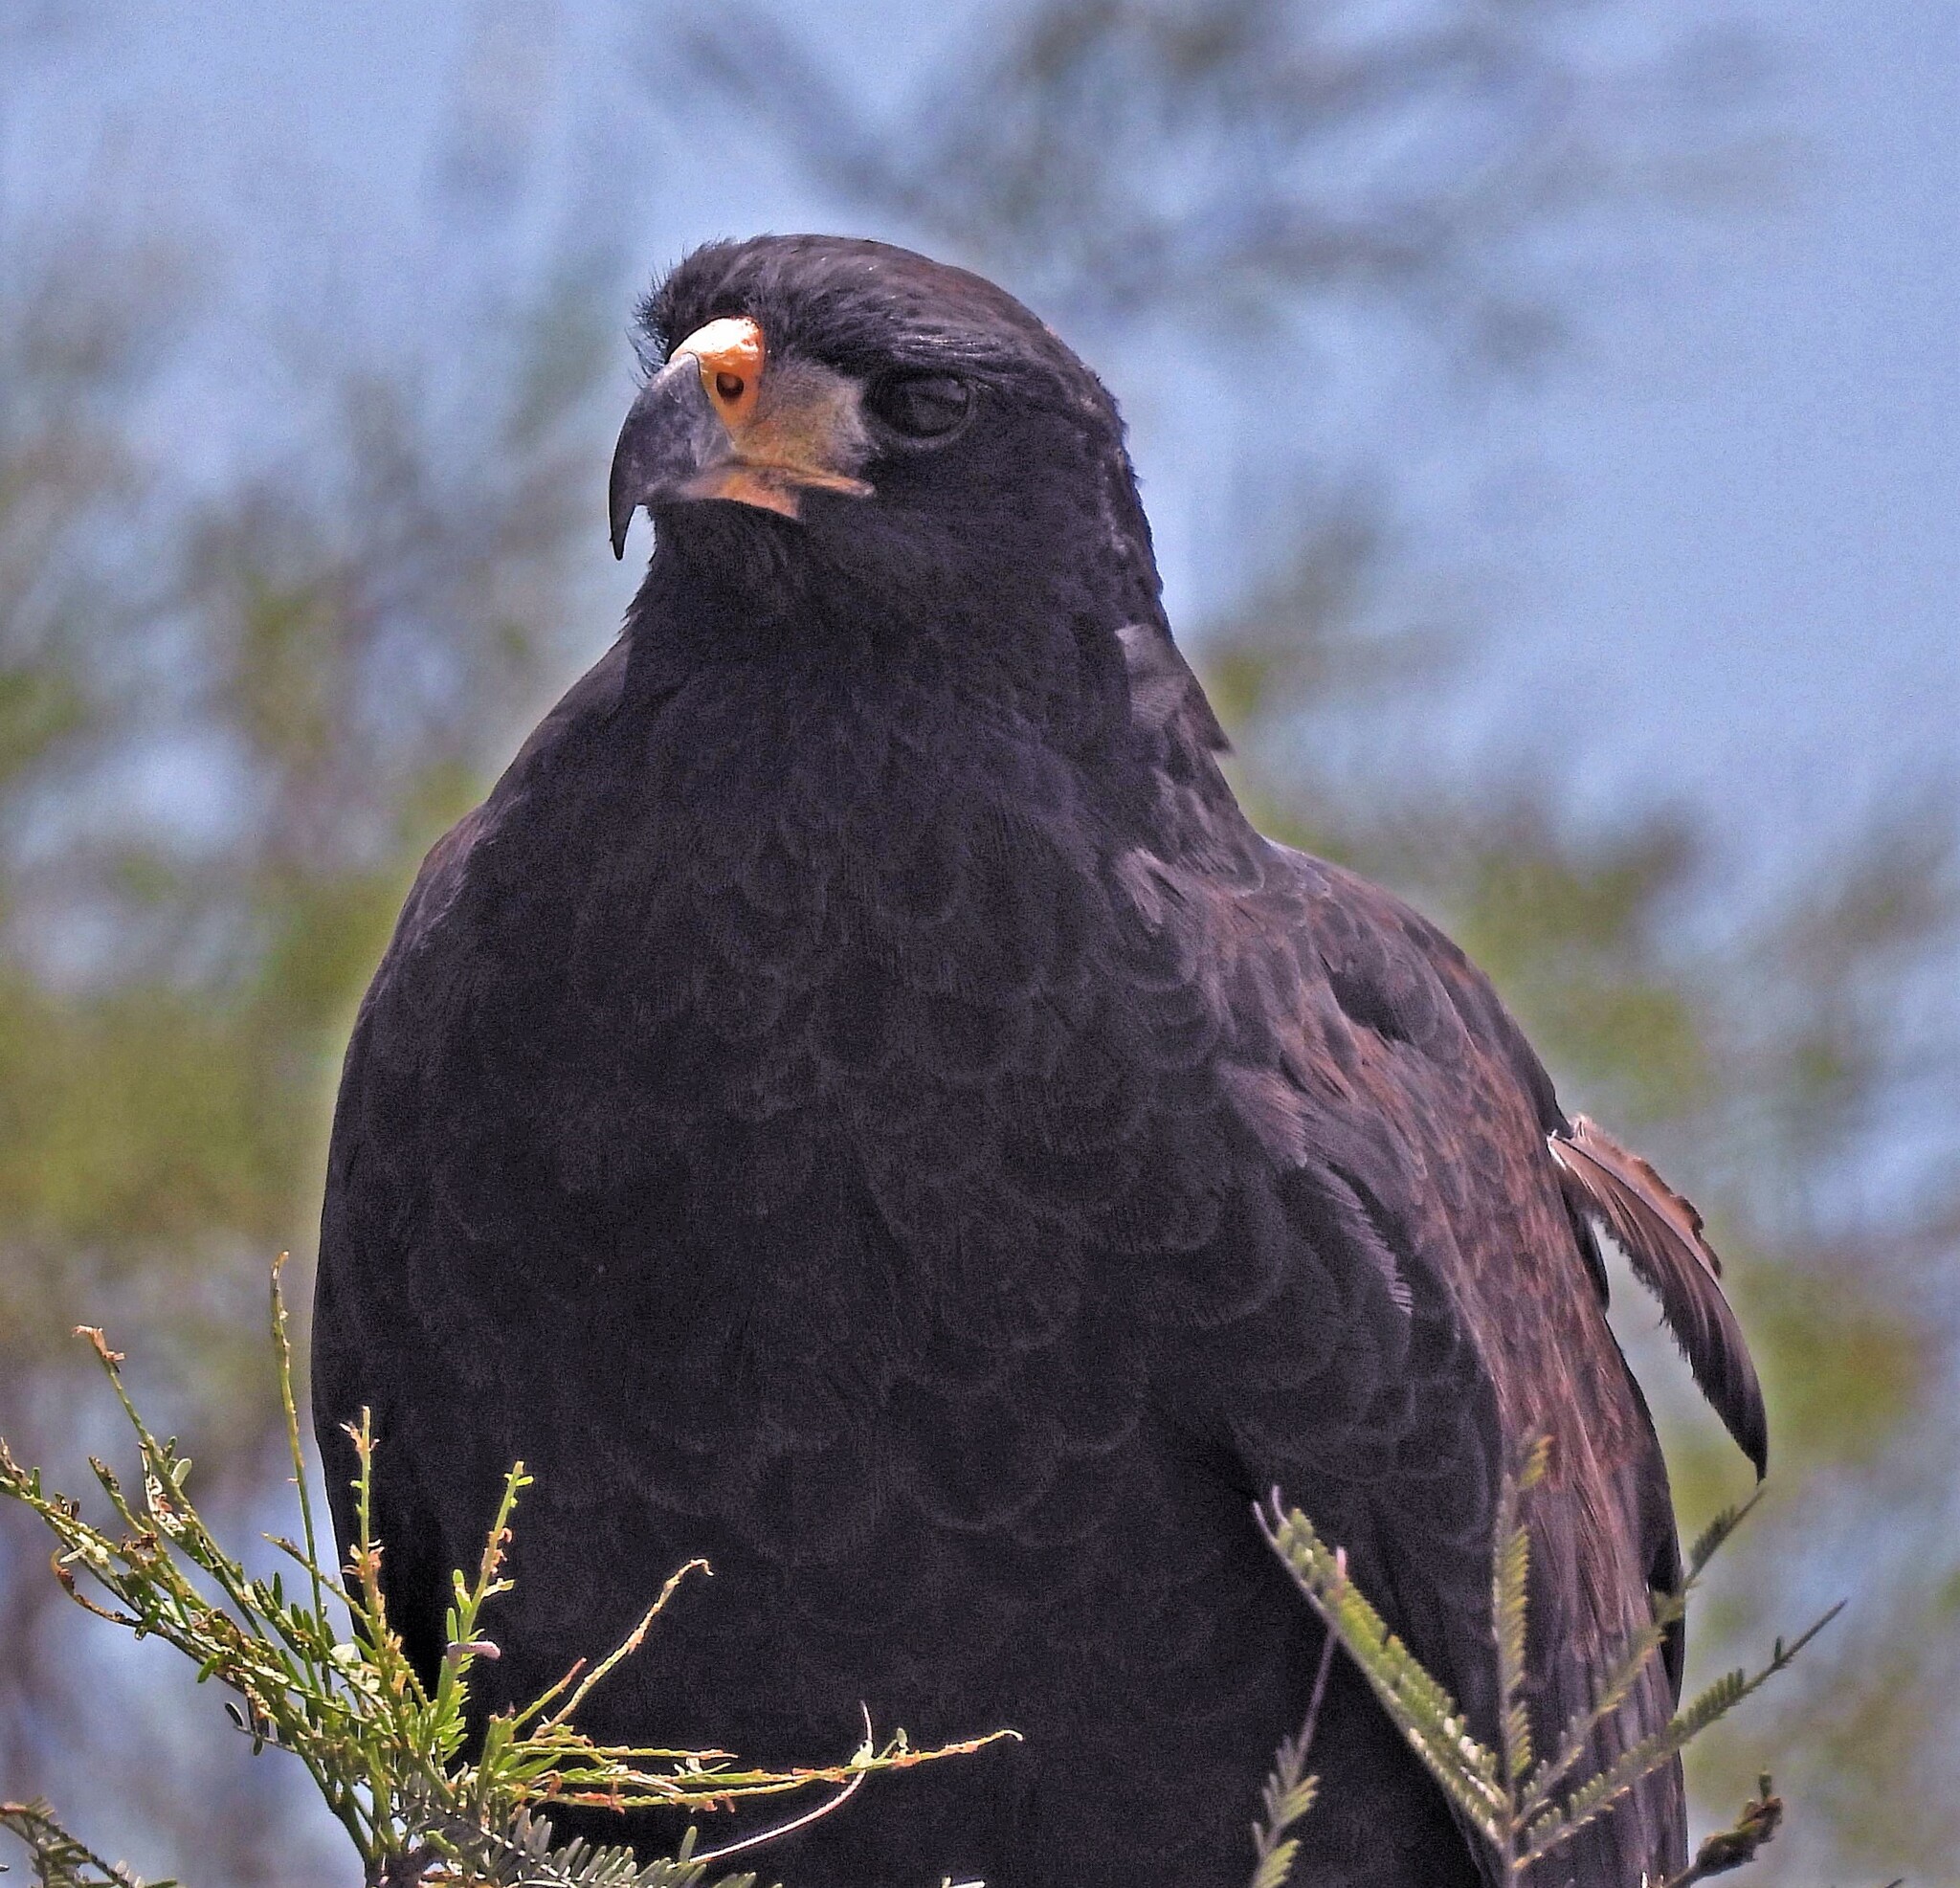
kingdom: Animalia
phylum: Chordata
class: Aves
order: Accipitriformes
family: Accipitridae
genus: Buteogallus
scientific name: Buteogallus urubitinga
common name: Great black hawk
